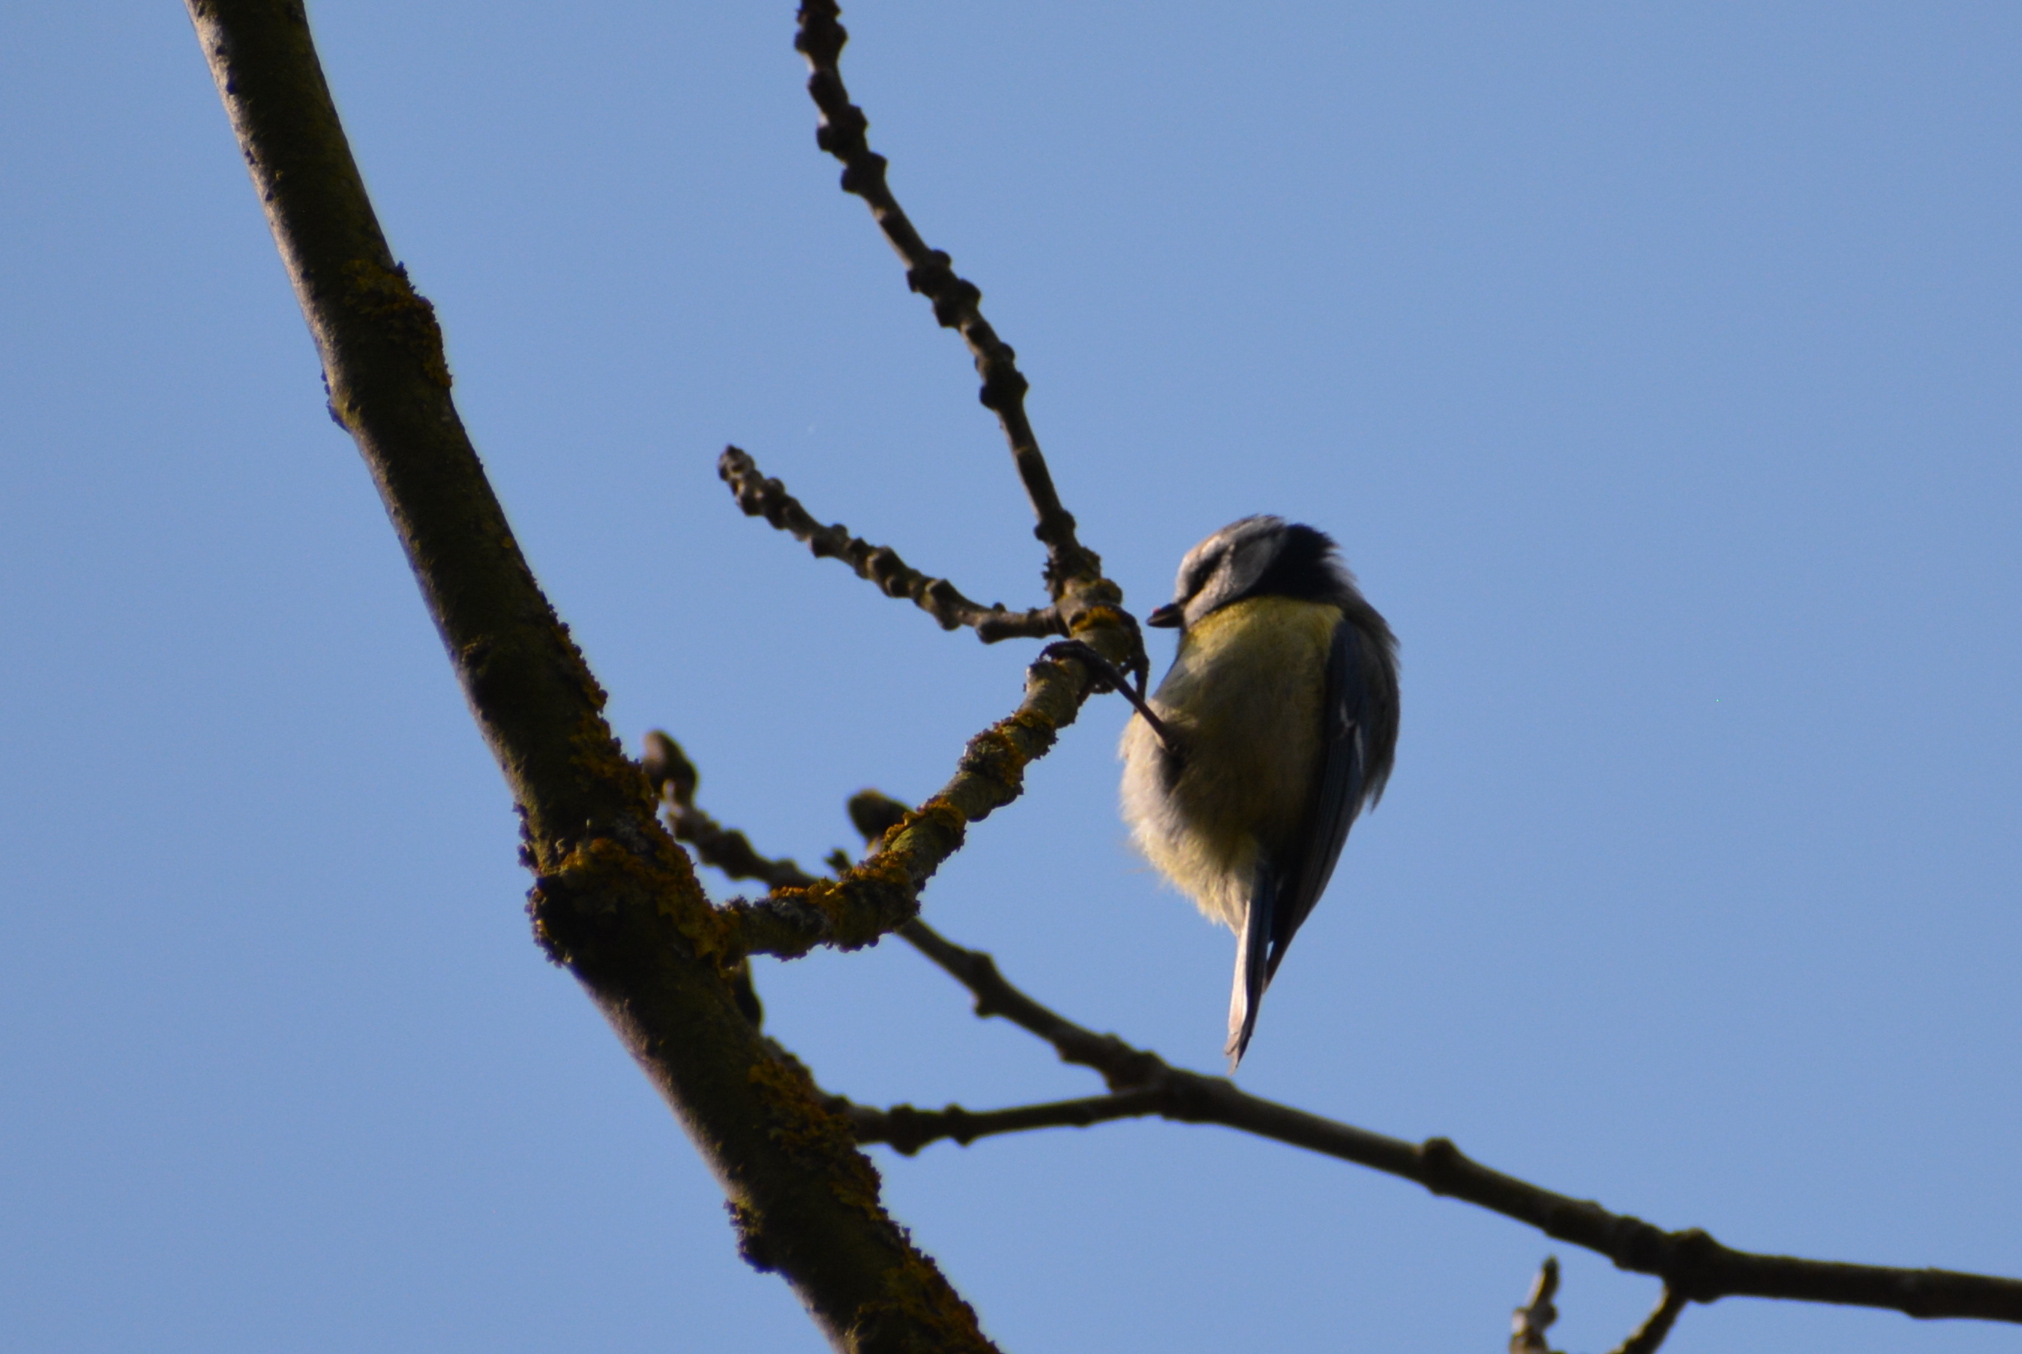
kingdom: Animalia
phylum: Chordata
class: Aves
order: Passeriformes
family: Paridae
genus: Cyanistes
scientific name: Cyanistes caeruleus
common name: Eurasian blue tit
